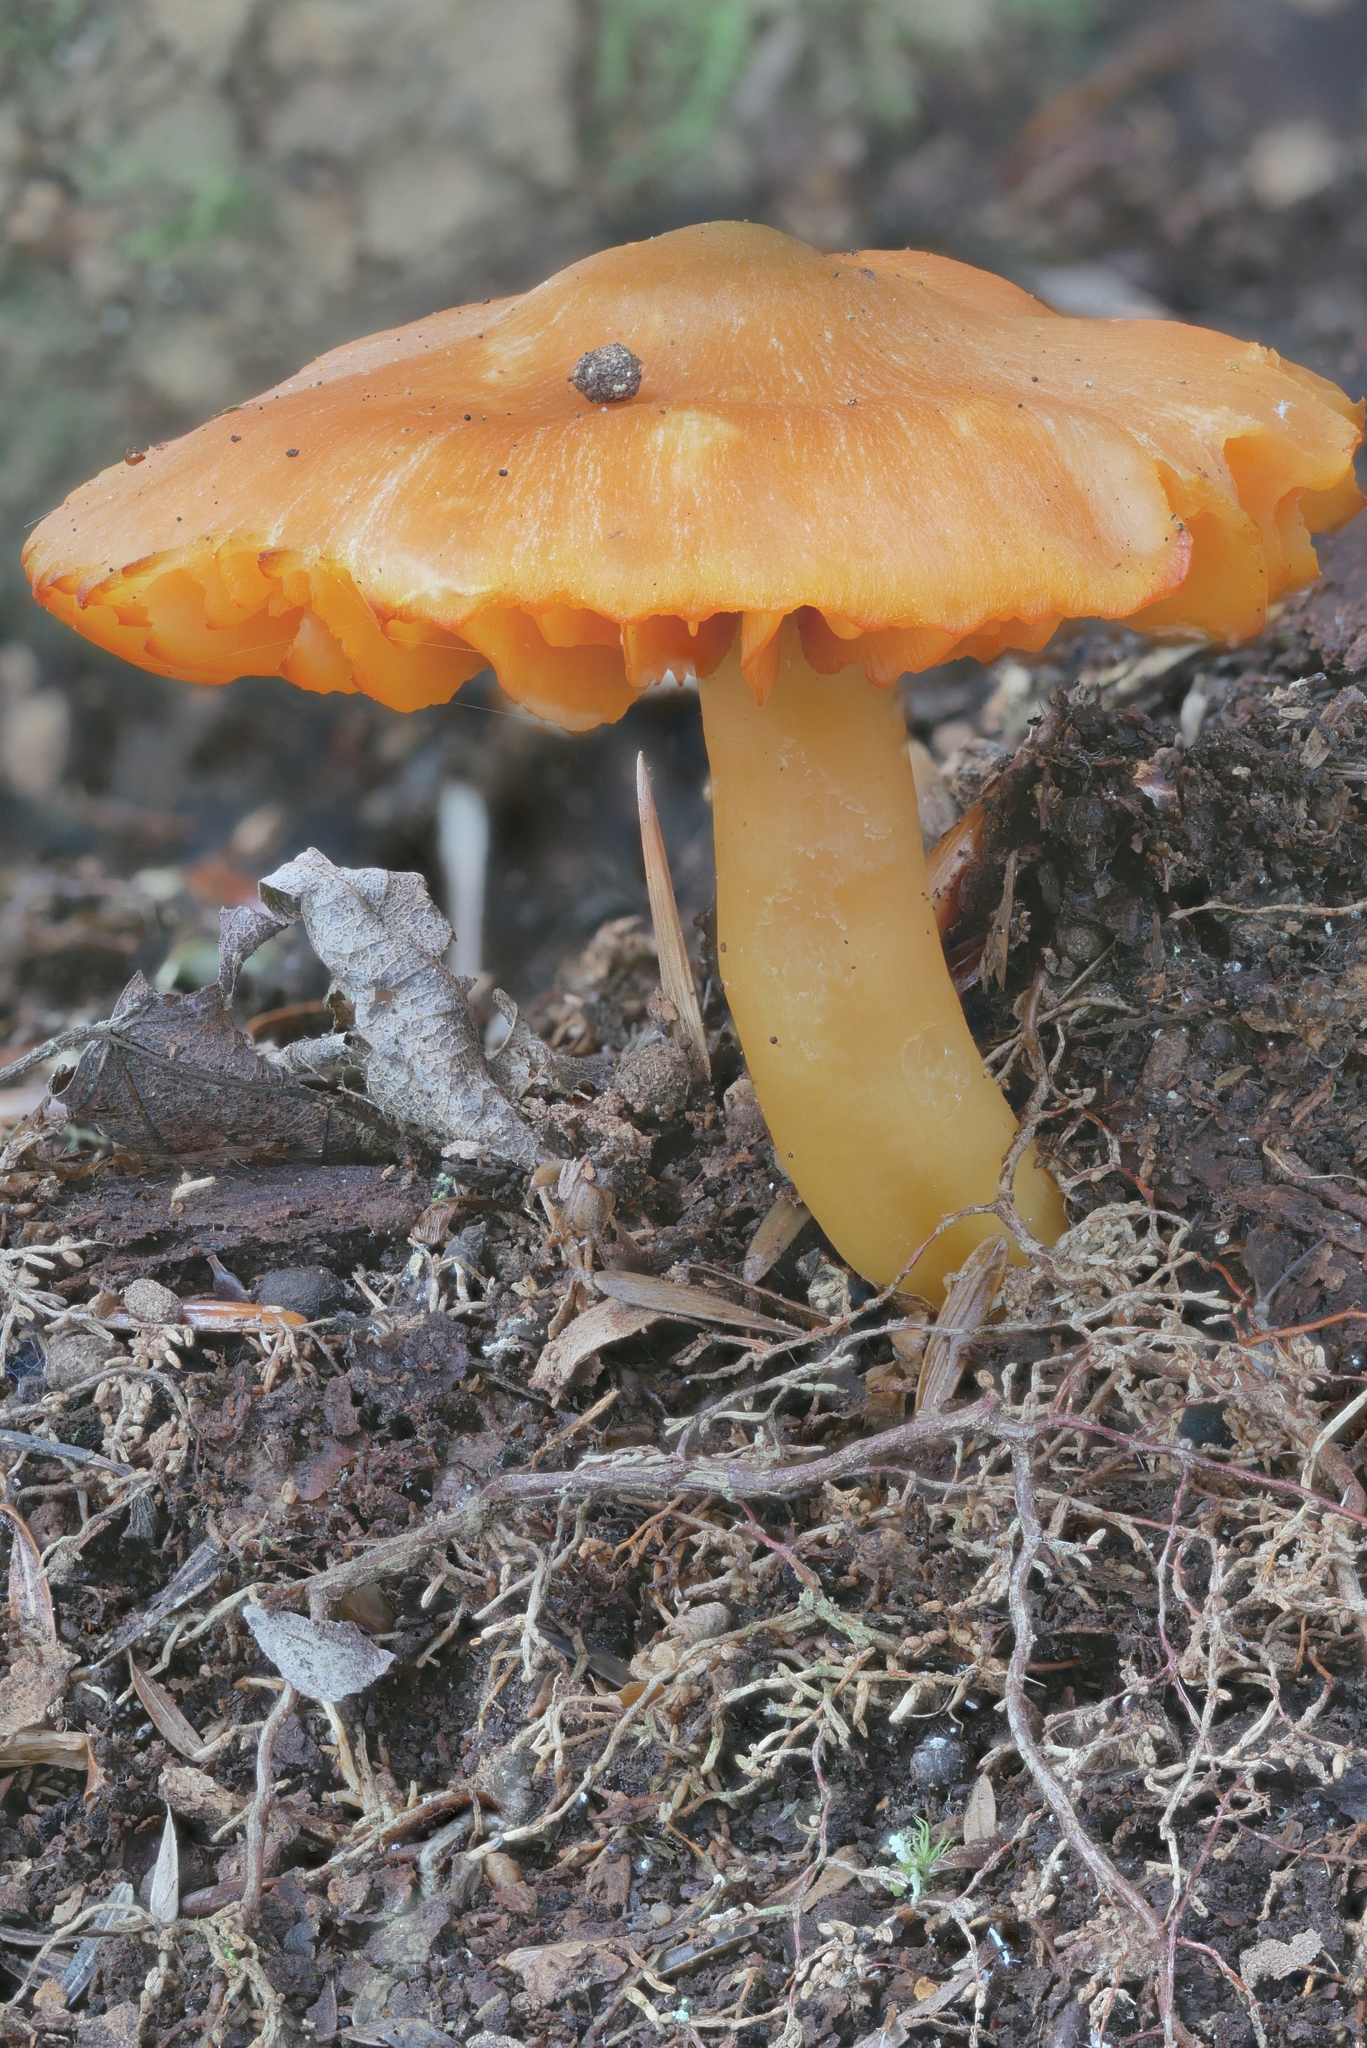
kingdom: Fungi
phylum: Basidiomycota
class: Agaricomycetes
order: Agaricales
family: Hygrophoraceae
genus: Humidicutis
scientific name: Humidicutis marginata
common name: Orange gilled waxcap
